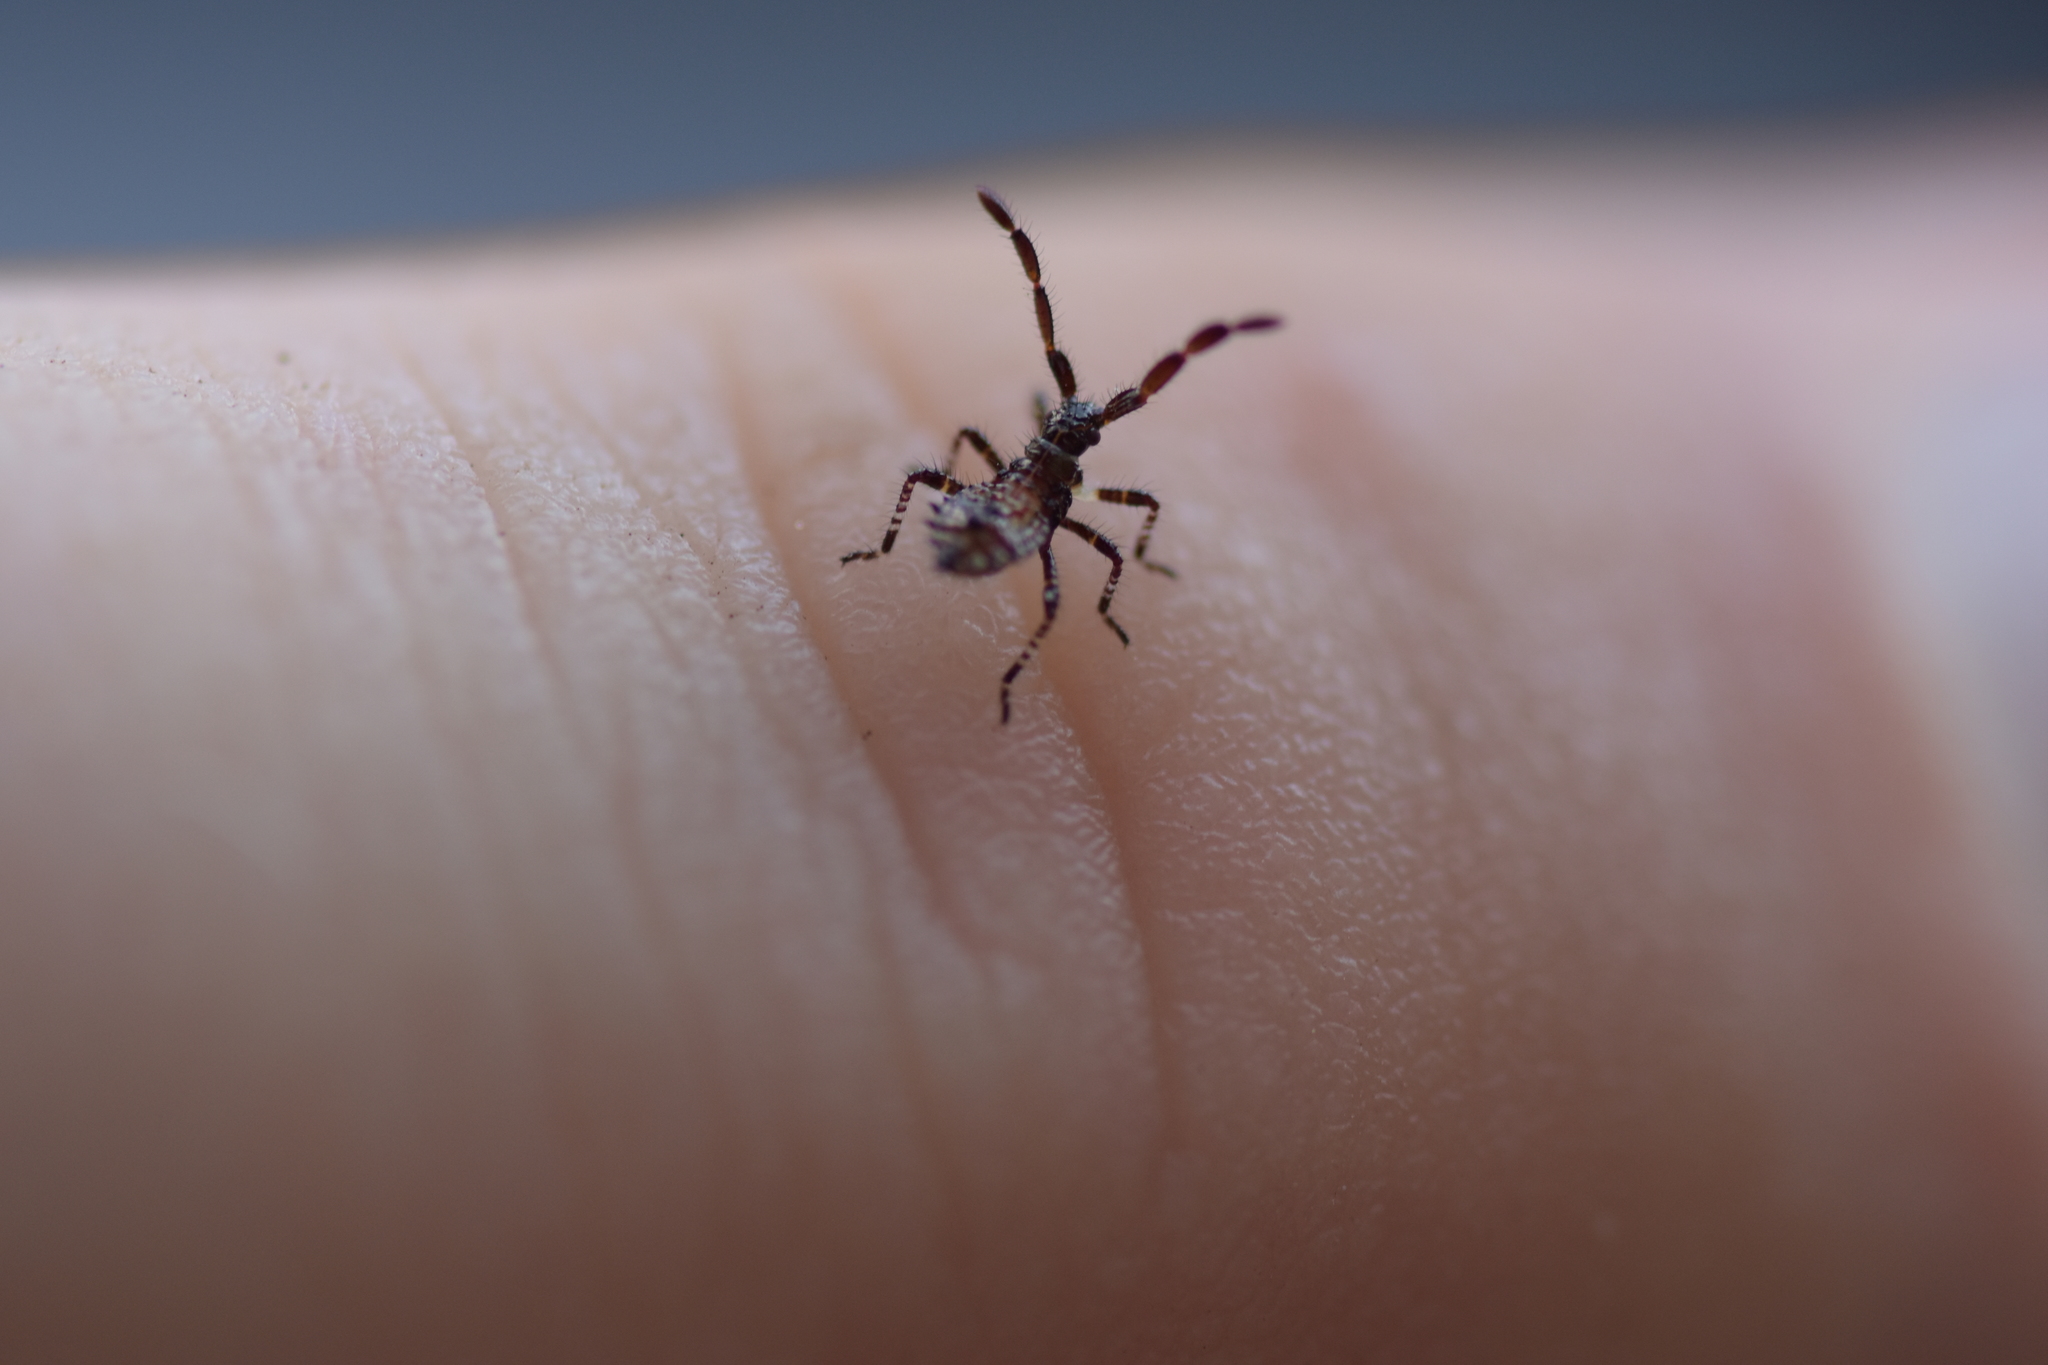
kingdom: Animalia
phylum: Arthropoda
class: Insecta
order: Hemiptera
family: Coreidae
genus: Coreus
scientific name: Coreus marginatus
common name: Dock bug
